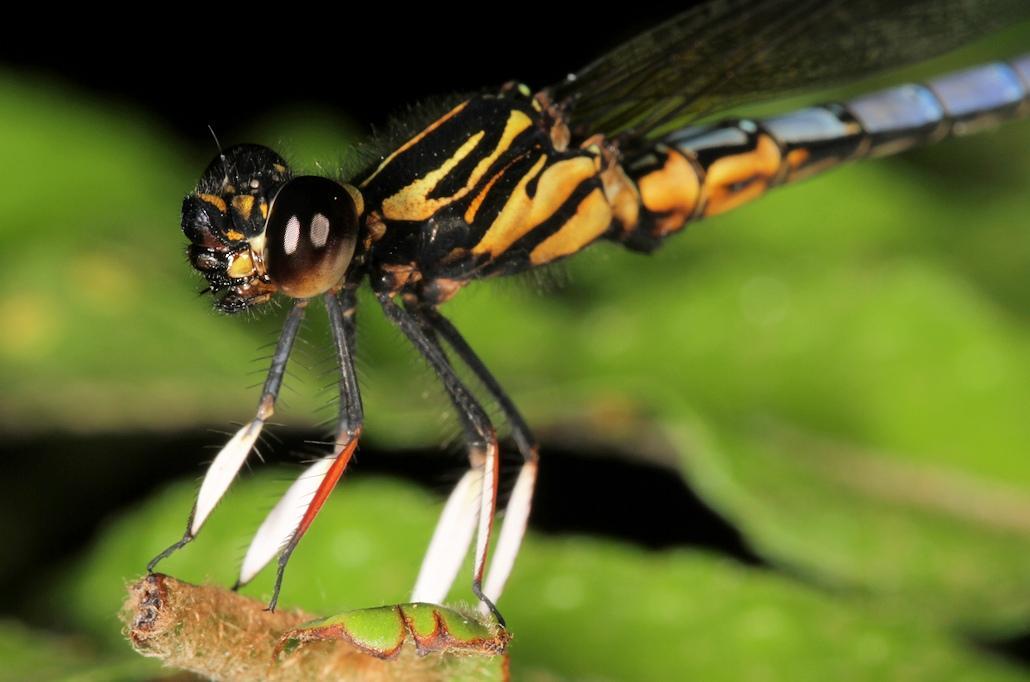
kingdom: Animalia
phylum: Arthropoda
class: Insecta
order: Odonata
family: Chlorocyphidae
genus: Platycypha
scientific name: Platycypha caligata
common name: Dancing jewel
